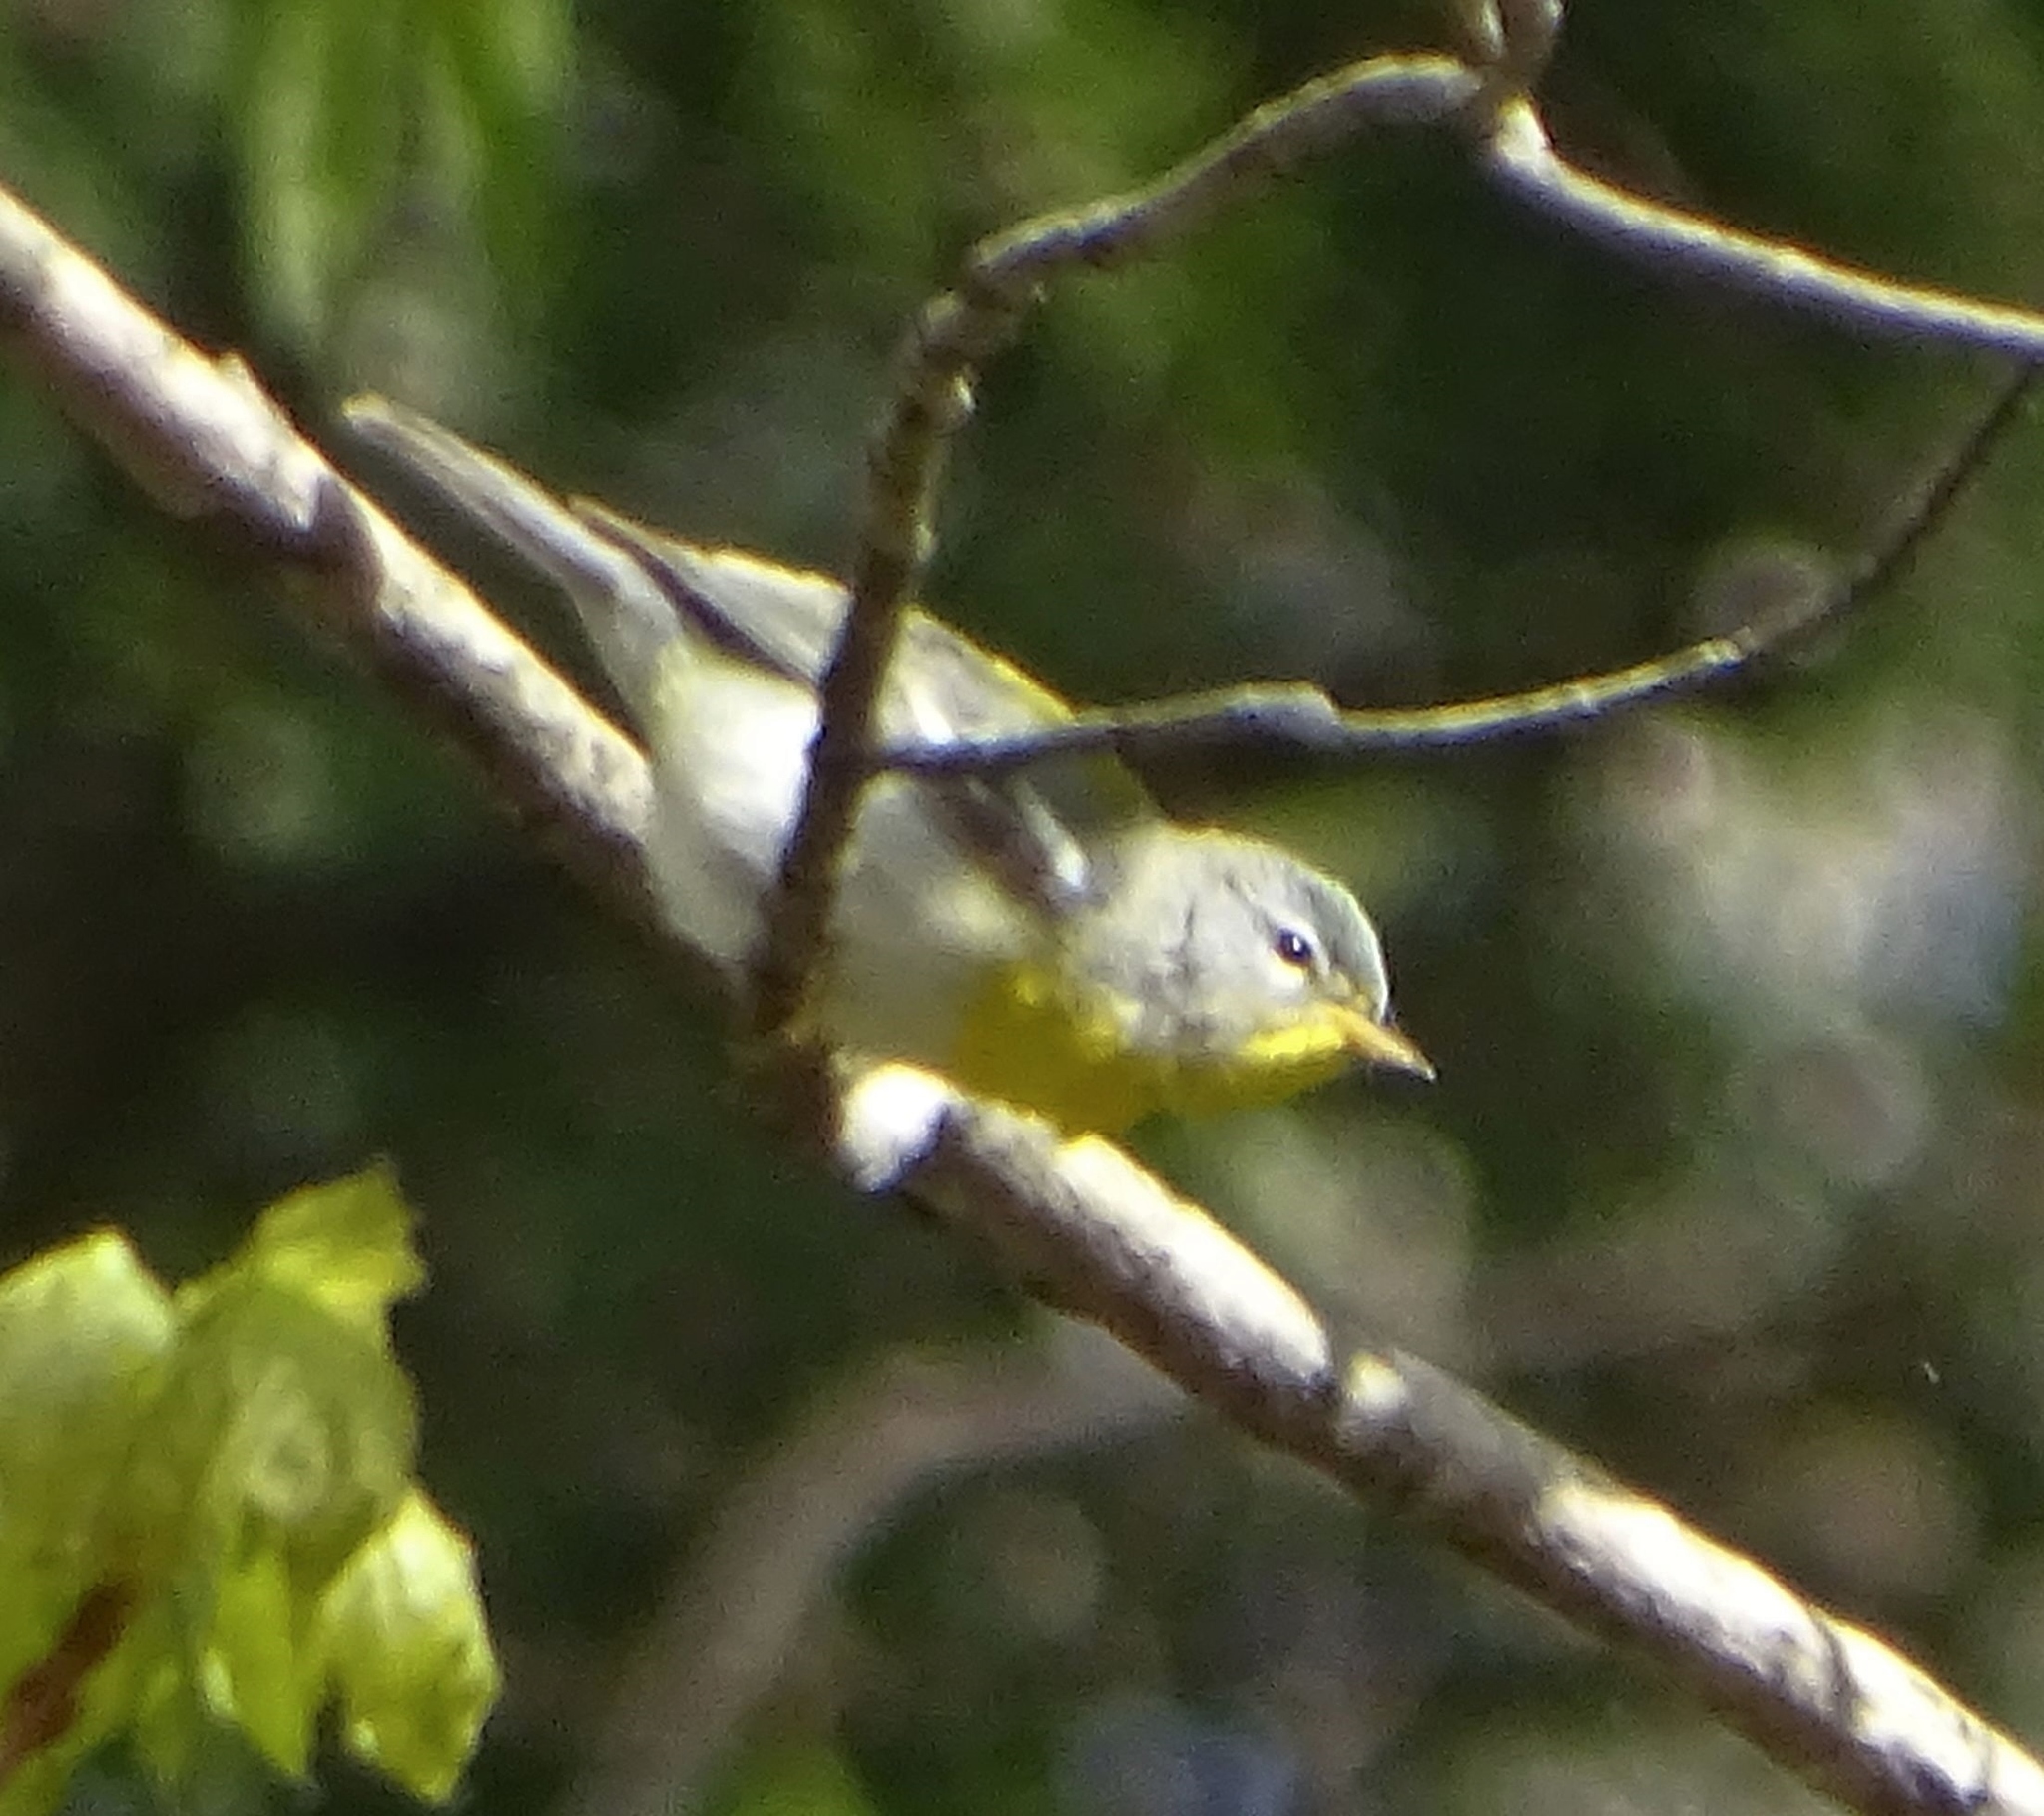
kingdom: Animalia
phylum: Chordata
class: Aves
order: Passeriformes
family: Parulidae
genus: Setophaga
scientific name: Setophaga americana
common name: Northern parula
